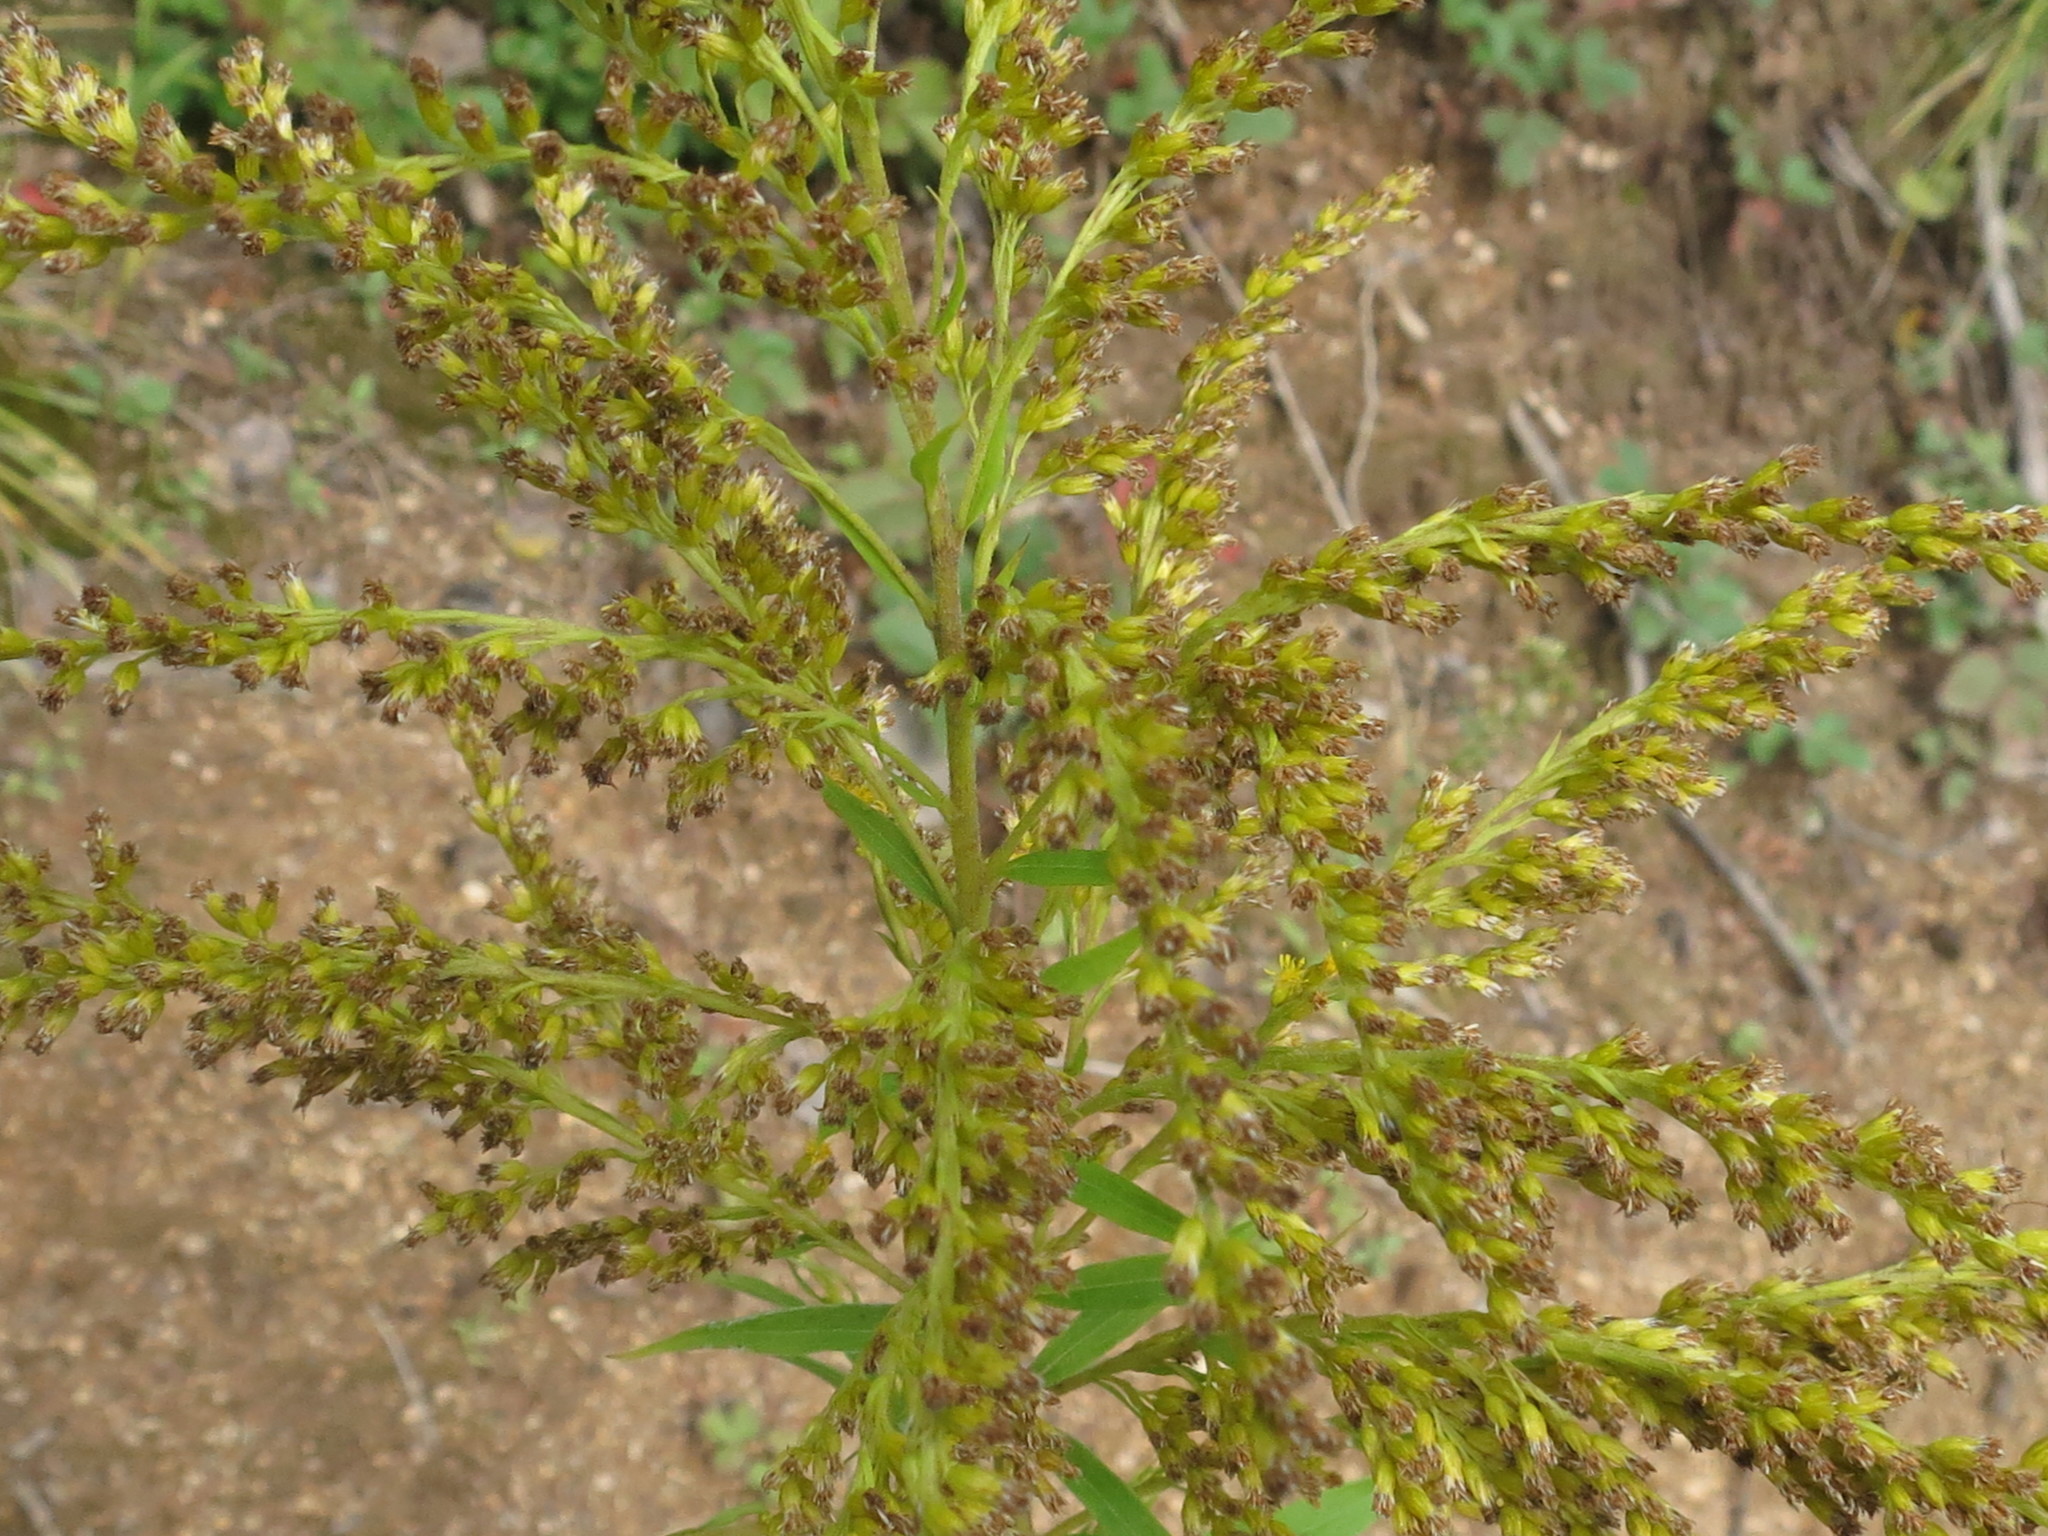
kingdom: Plantae
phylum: Tracheophyta
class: Magnoliopsida
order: Asterales
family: Asteraceae
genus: Solidago
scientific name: Solidago canadensis
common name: Canada goldenrod
